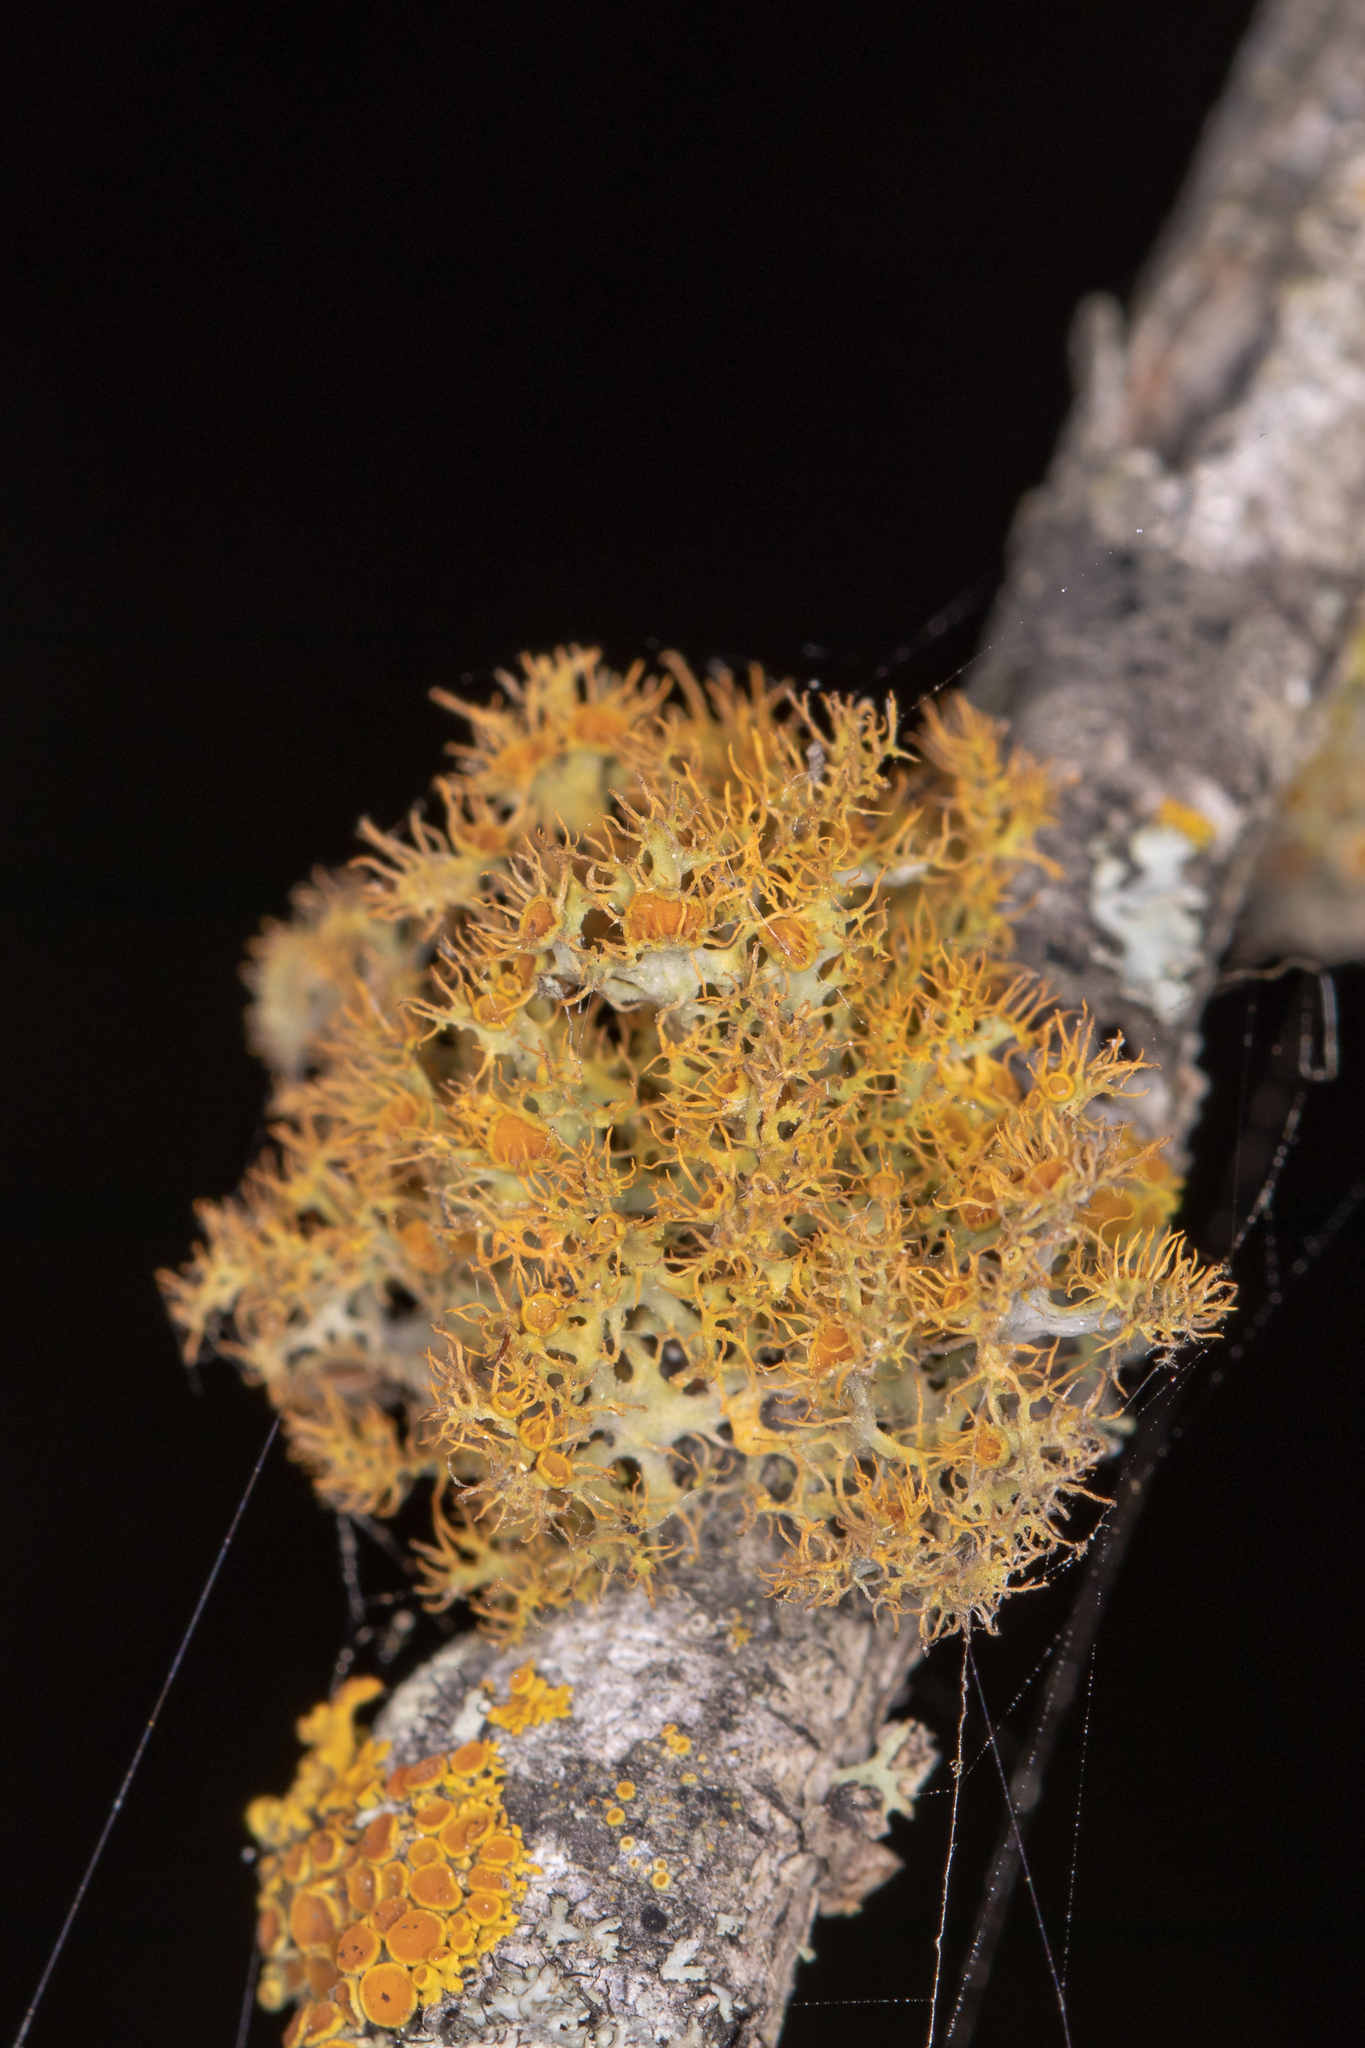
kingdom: Fungi
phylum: Ascomycota
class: Lecanoromycetes
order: Teloschistales
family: Teloschistaceae
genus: Niorma
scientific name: Niorma chrysophthalma
